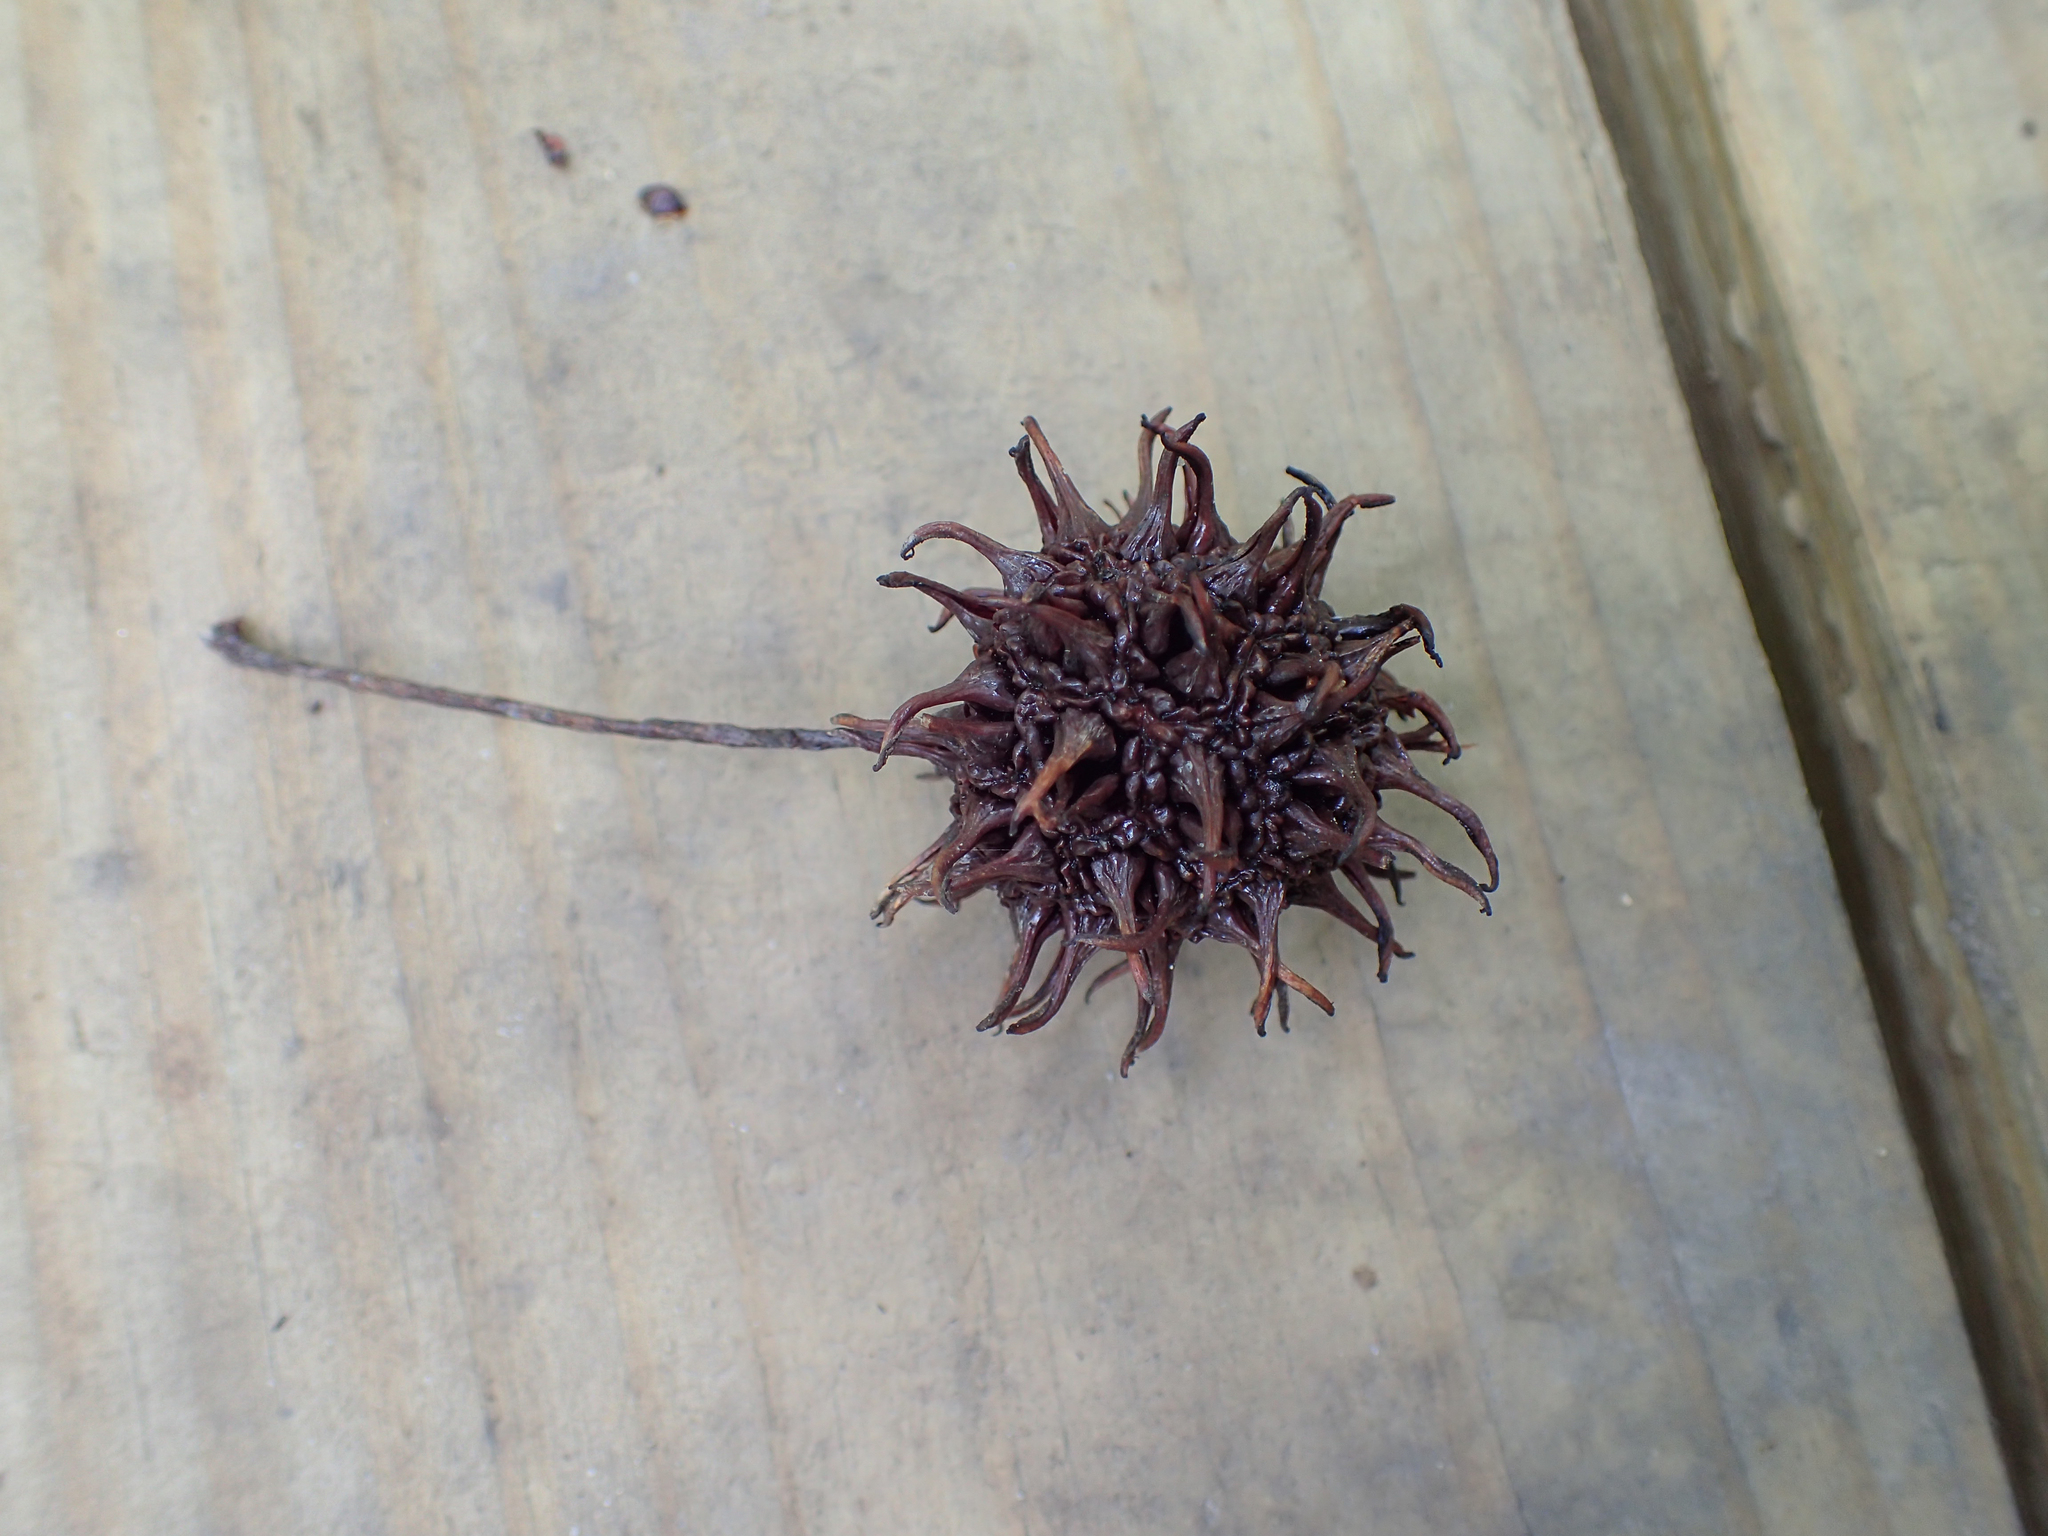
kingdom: Plantae
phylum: Tracheophyta
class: Magnoliopsida
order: Saxifragales
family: Altingiaceae
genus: Liquidambar
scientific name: Liquidambar styraciflua
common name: Sweet gum
